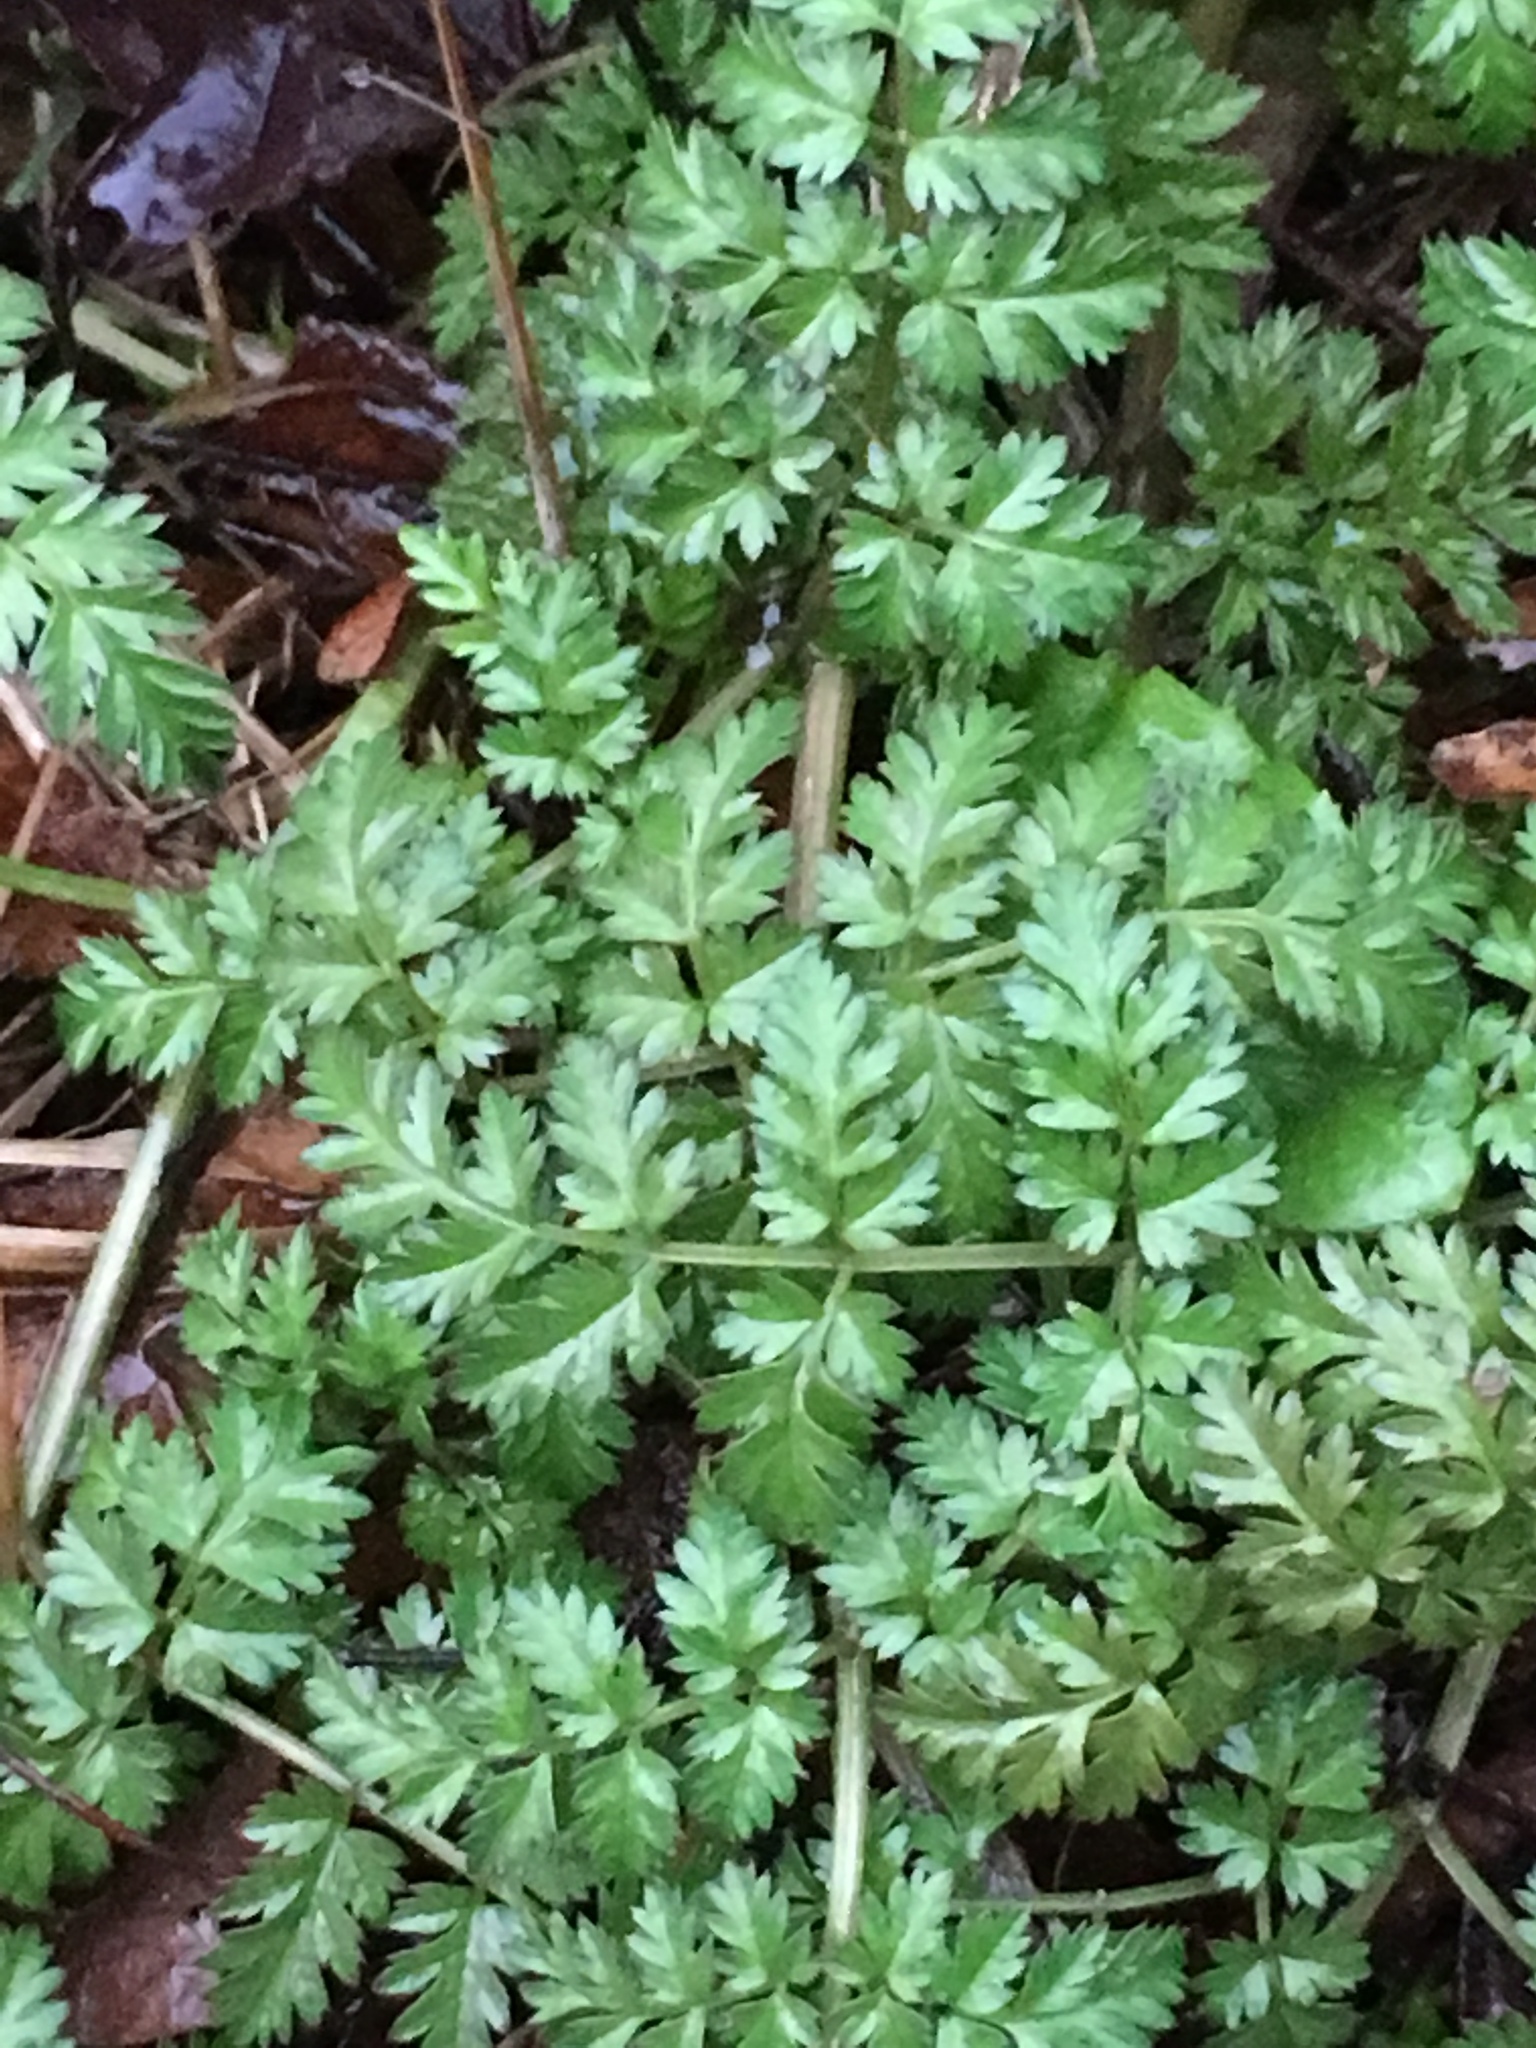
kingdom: Plantae
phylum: Tracheophyta
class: Magnoliopsida
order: Apiales
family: Apiaceae
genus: Anthriscus
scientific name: Anthriscus sylvestris
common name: Cow parsley
